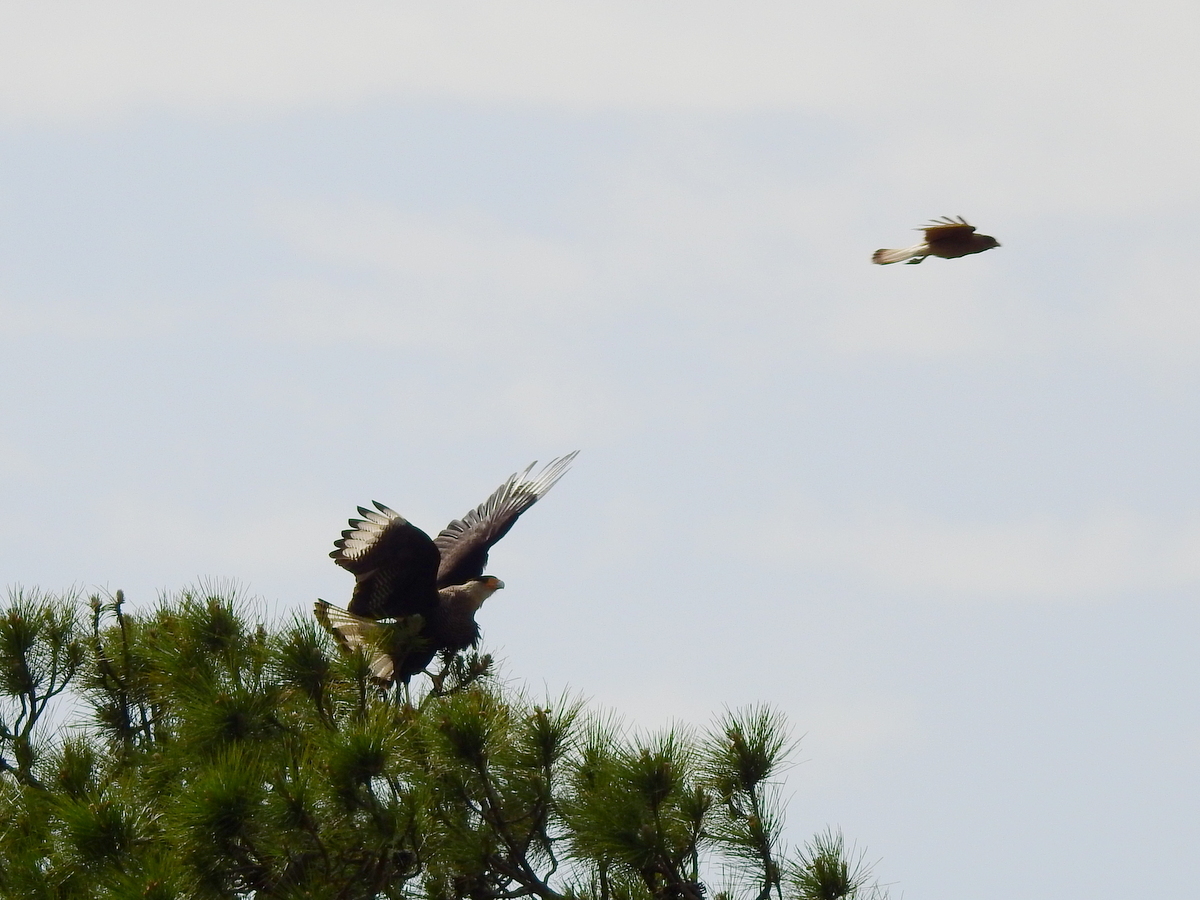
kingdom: Animalia
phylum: Chordata
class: Aves
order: Falconiformes
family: Falconidae
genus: Caracara
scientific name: Caracara plancus
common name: Southern caracara
